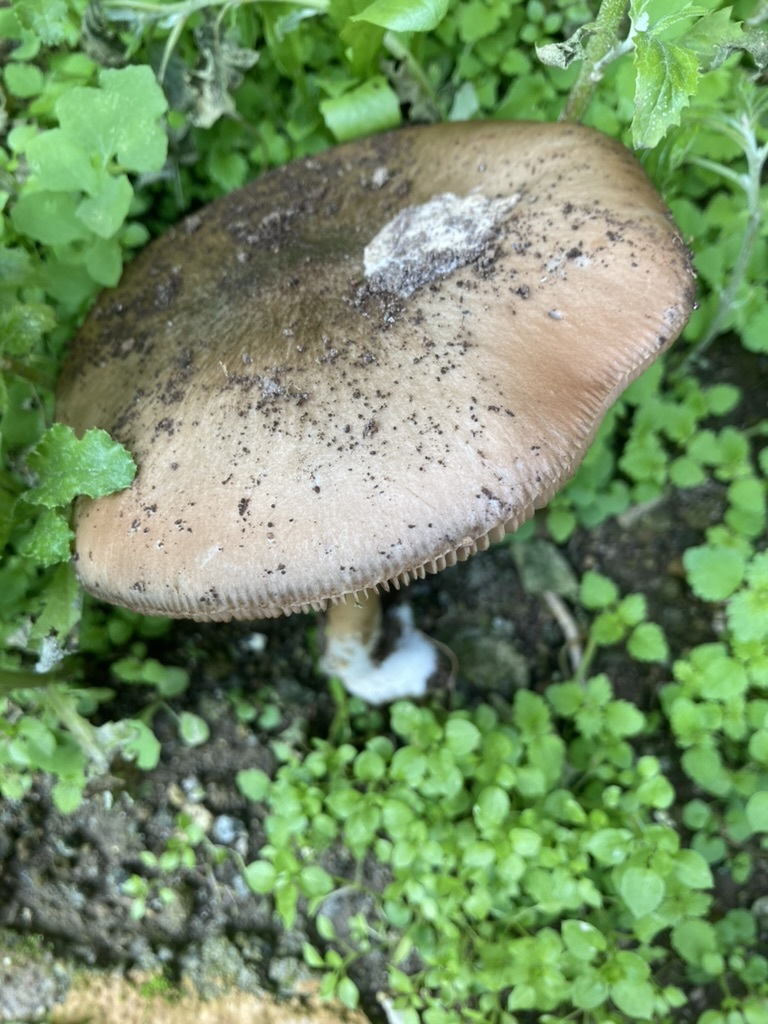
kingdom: Fungi
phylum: Basidiomycota
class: Agaricomycetes
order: Agaricales
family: Pluteaceae
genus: Volvopluteus
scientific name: Volvopluteus gloiocephalus
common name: Stubble rosegill
